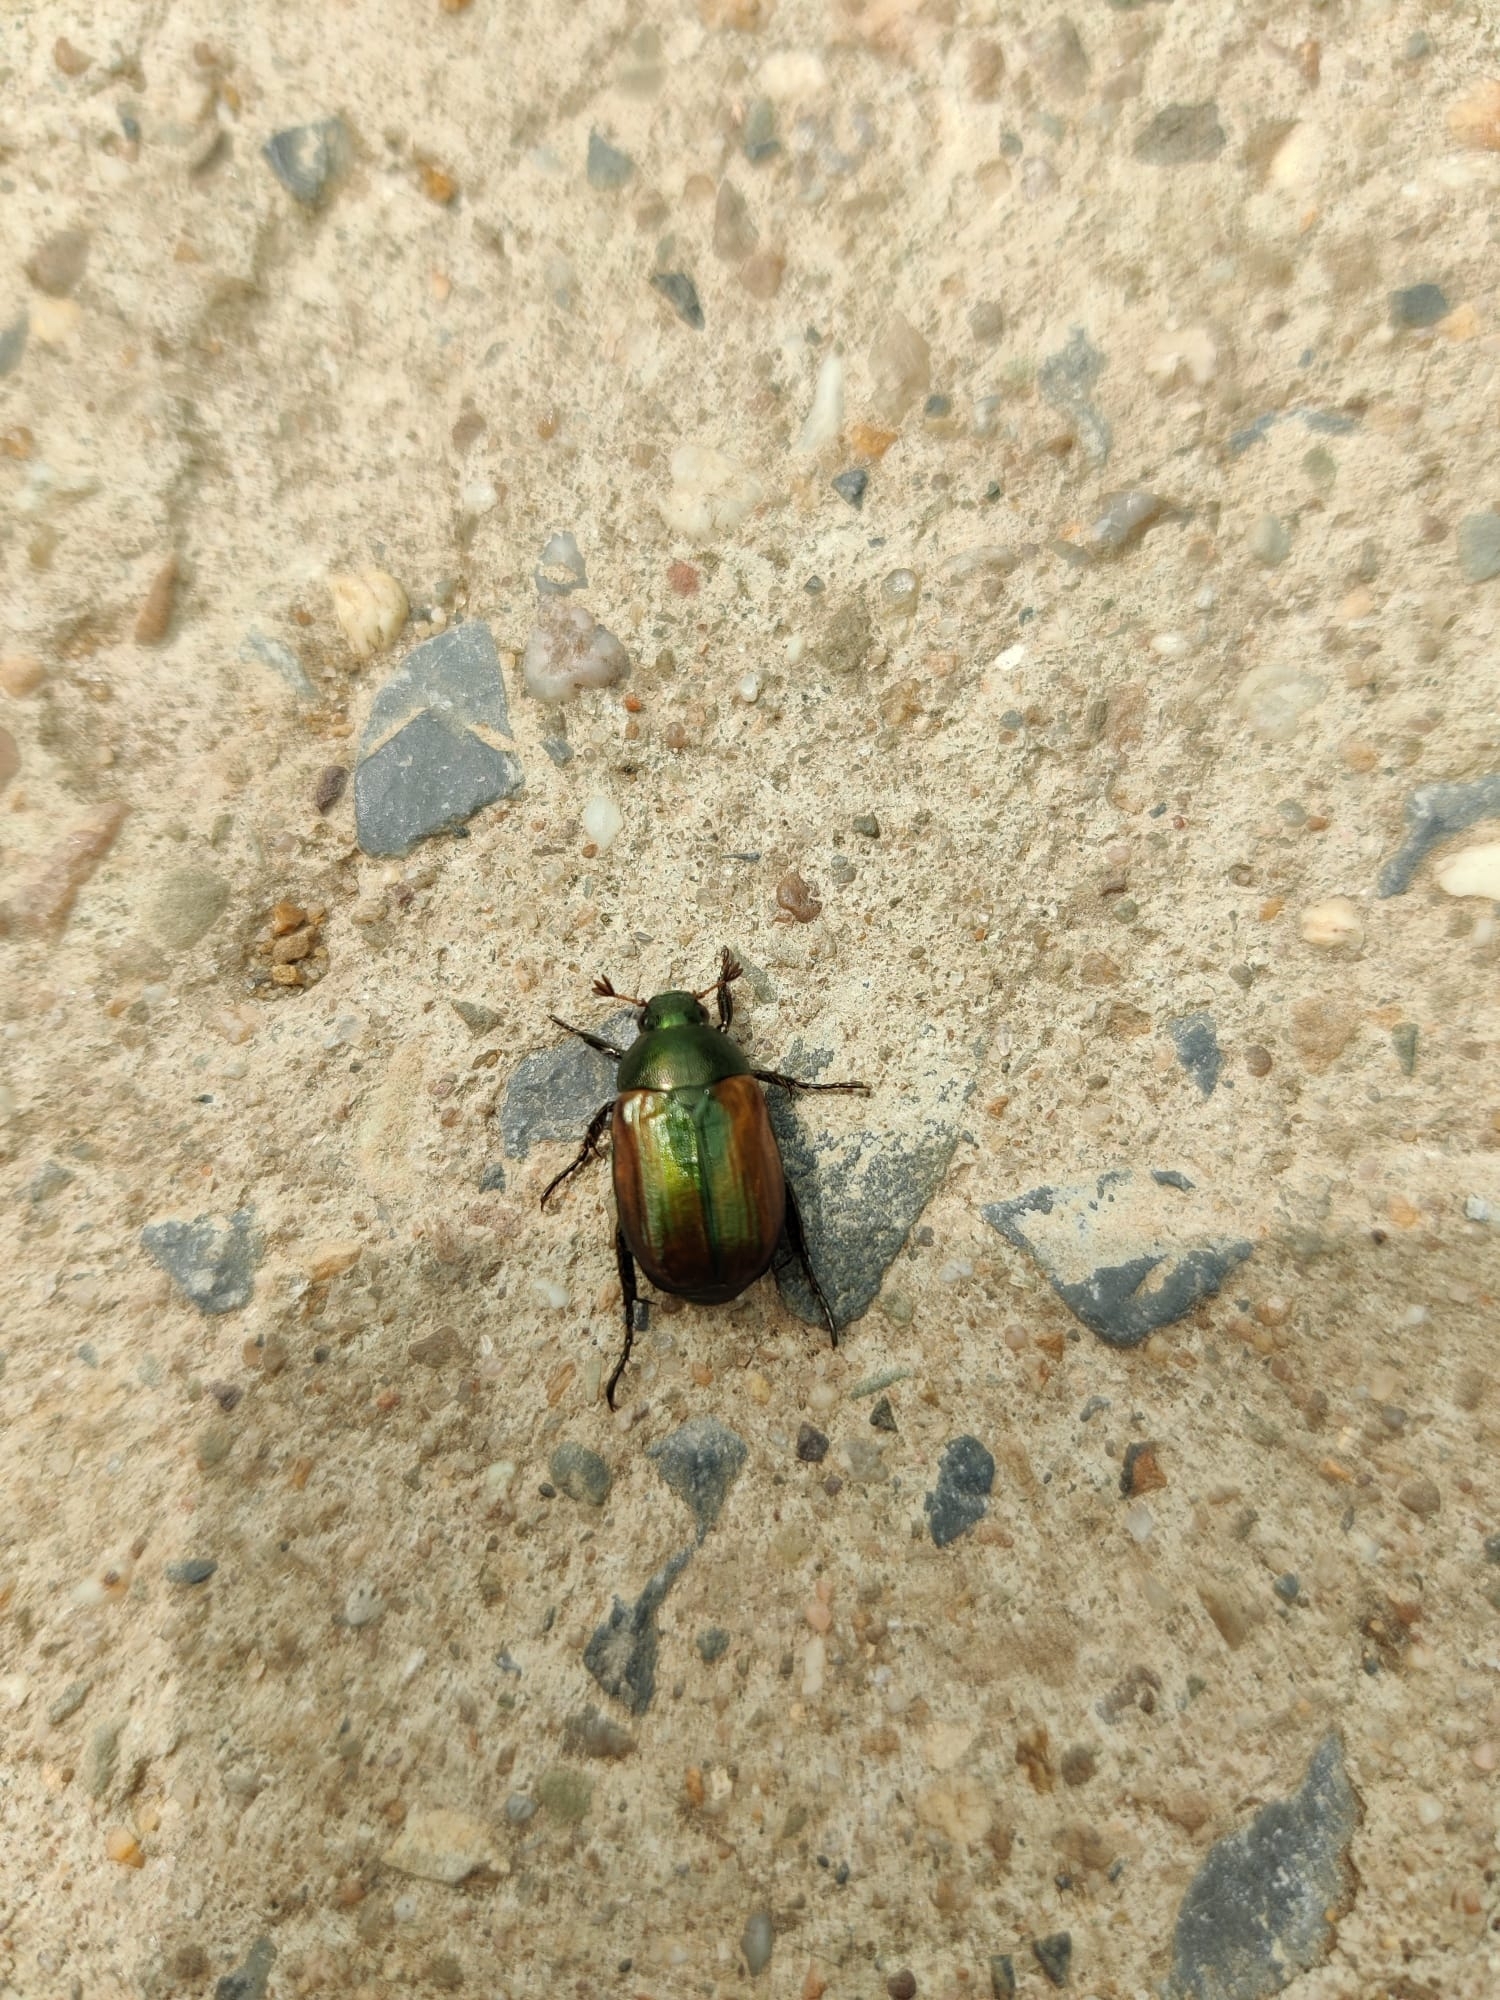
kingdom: Animalia
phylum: Arthropoda
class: Insecta
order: Coleoptera
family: Scarabaeidae
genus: Anomala
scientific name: Anomala dubia
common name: Dune chafer
